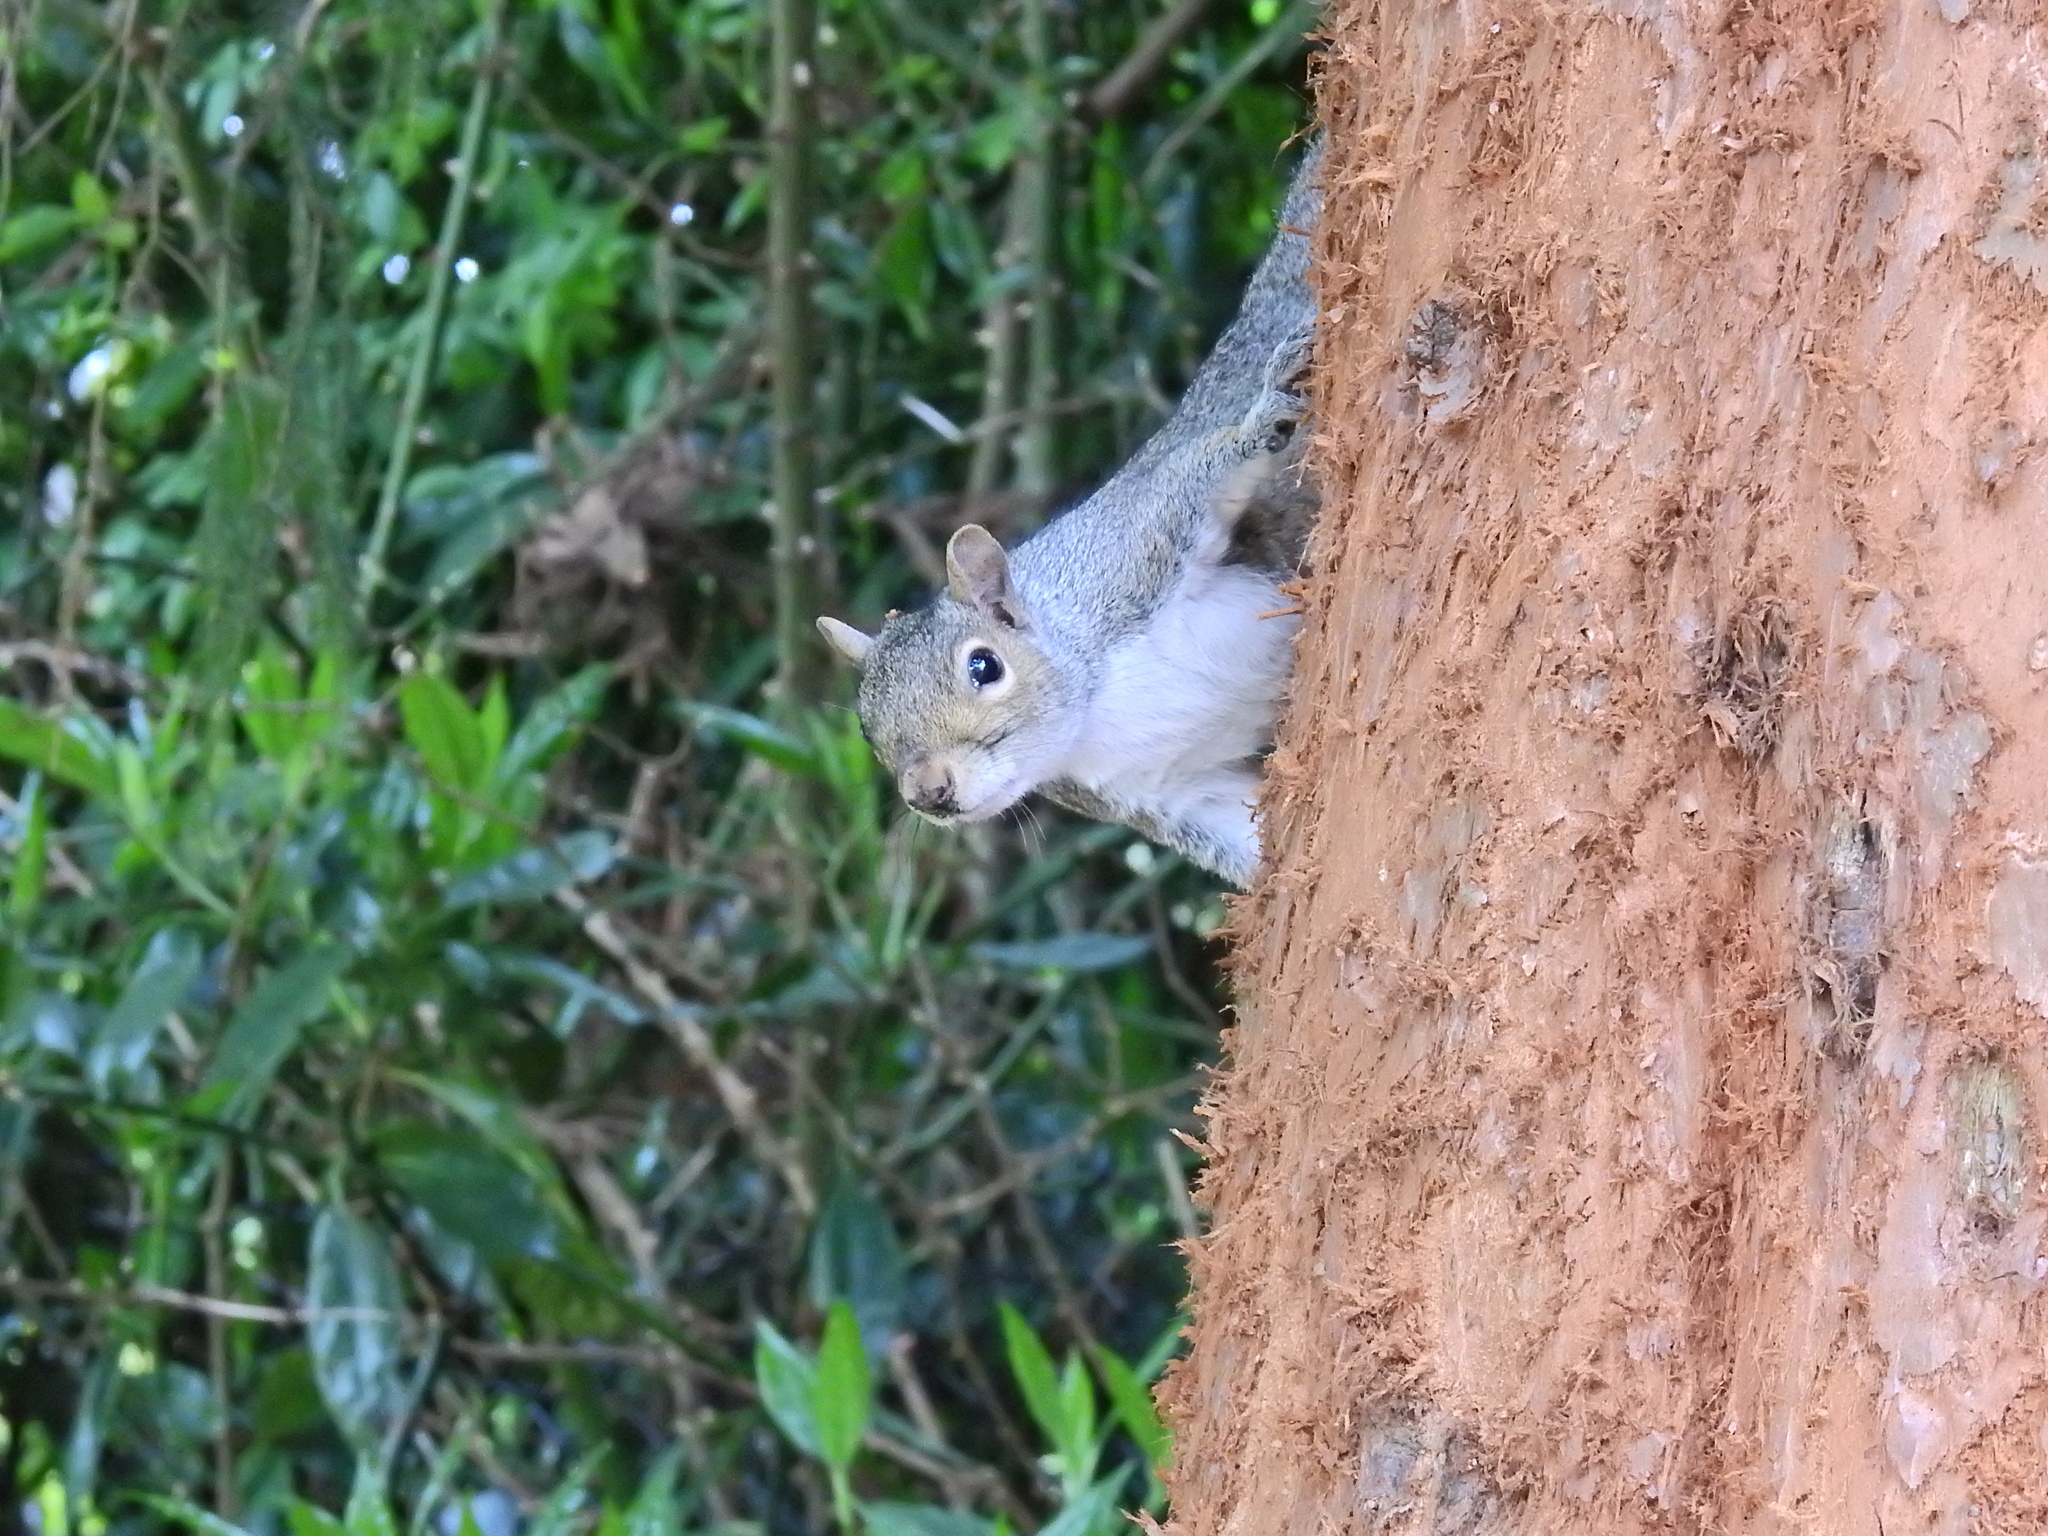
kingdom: Animalia
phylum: Chordata
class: Mammalia
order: Rodentia
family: Sciuridae
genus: Sciurus
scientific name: Sciurus carolinensis
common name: Eastern gray squirrel
